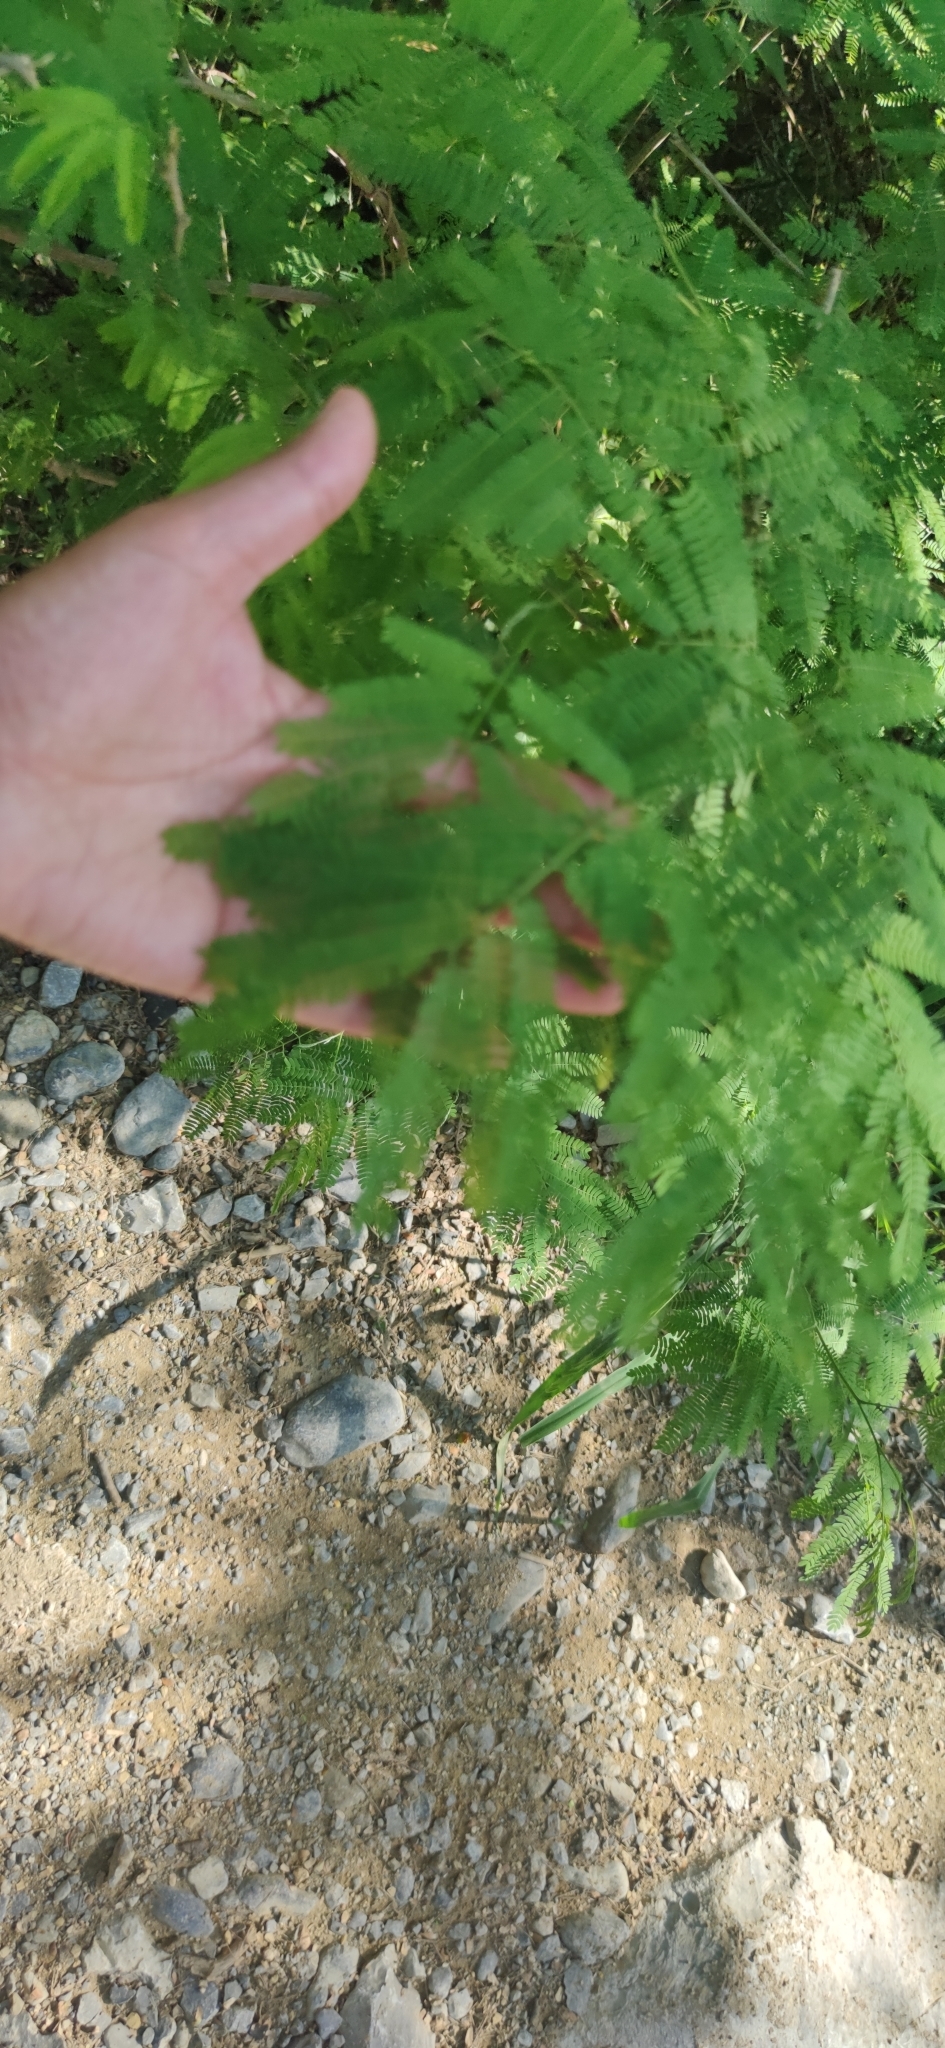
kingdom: Plantae
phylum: Tracheophyta
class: Magnoliopsida
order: Fabales
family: Fabaceae
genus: Mariosousa
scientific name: Mariosousa coulteri
